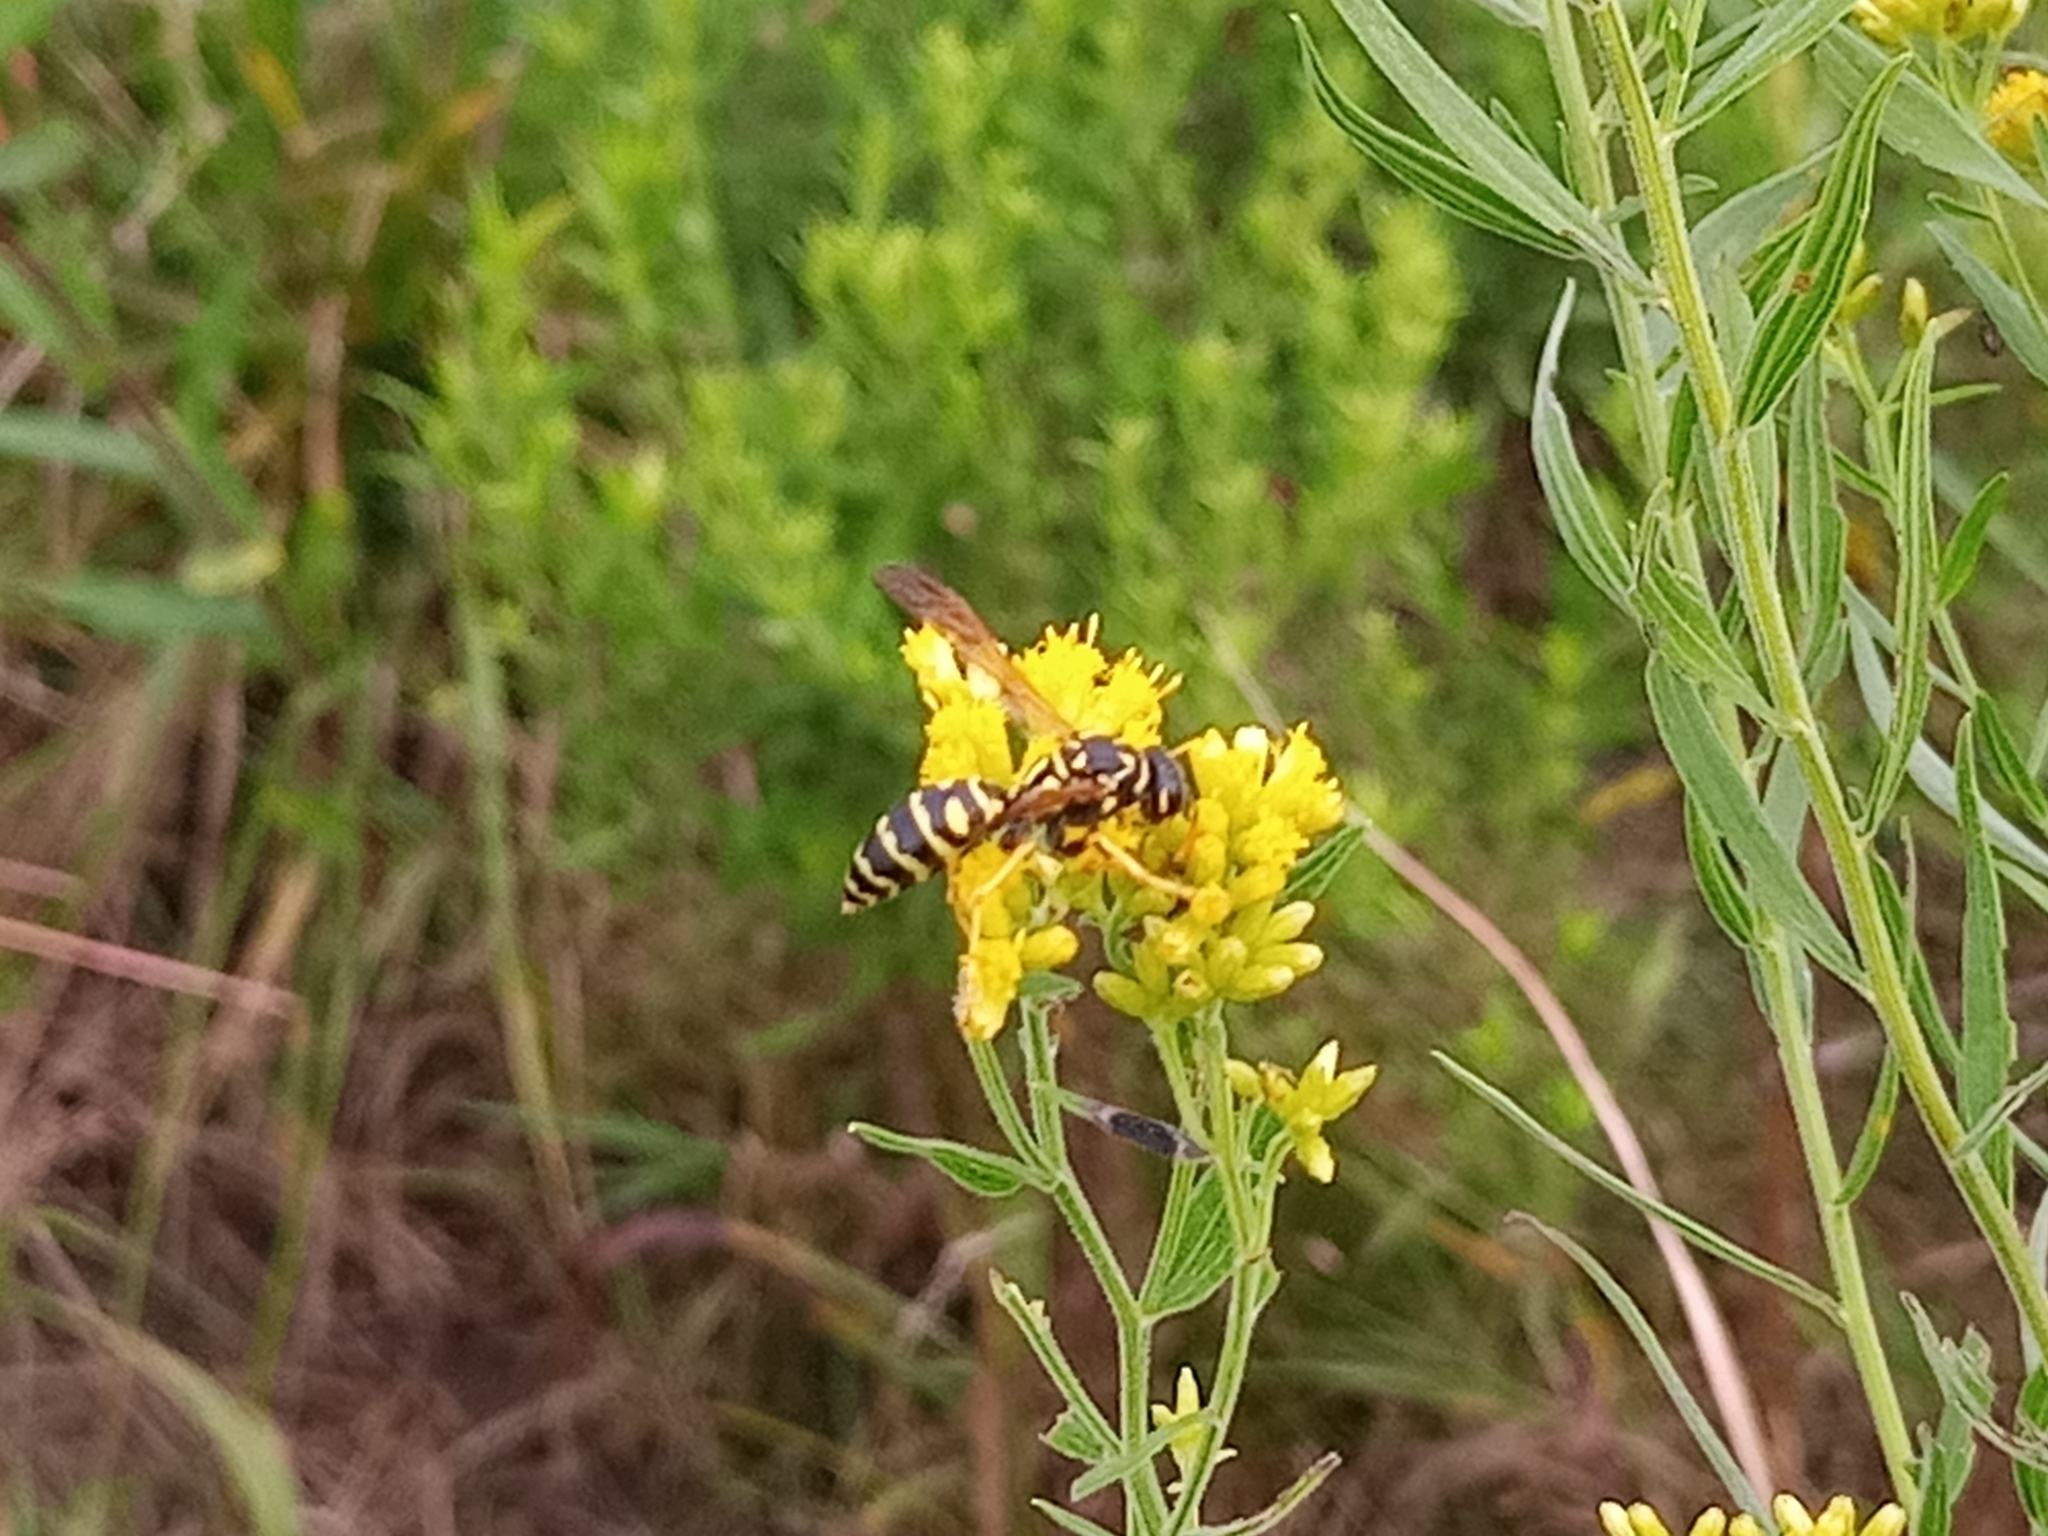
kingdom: Animalia
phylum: Arthropoda
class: Insecta
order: Hymenoptera
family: Eumenidae
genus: Polistes
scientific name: Polistes dominula
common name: Paper wasp
